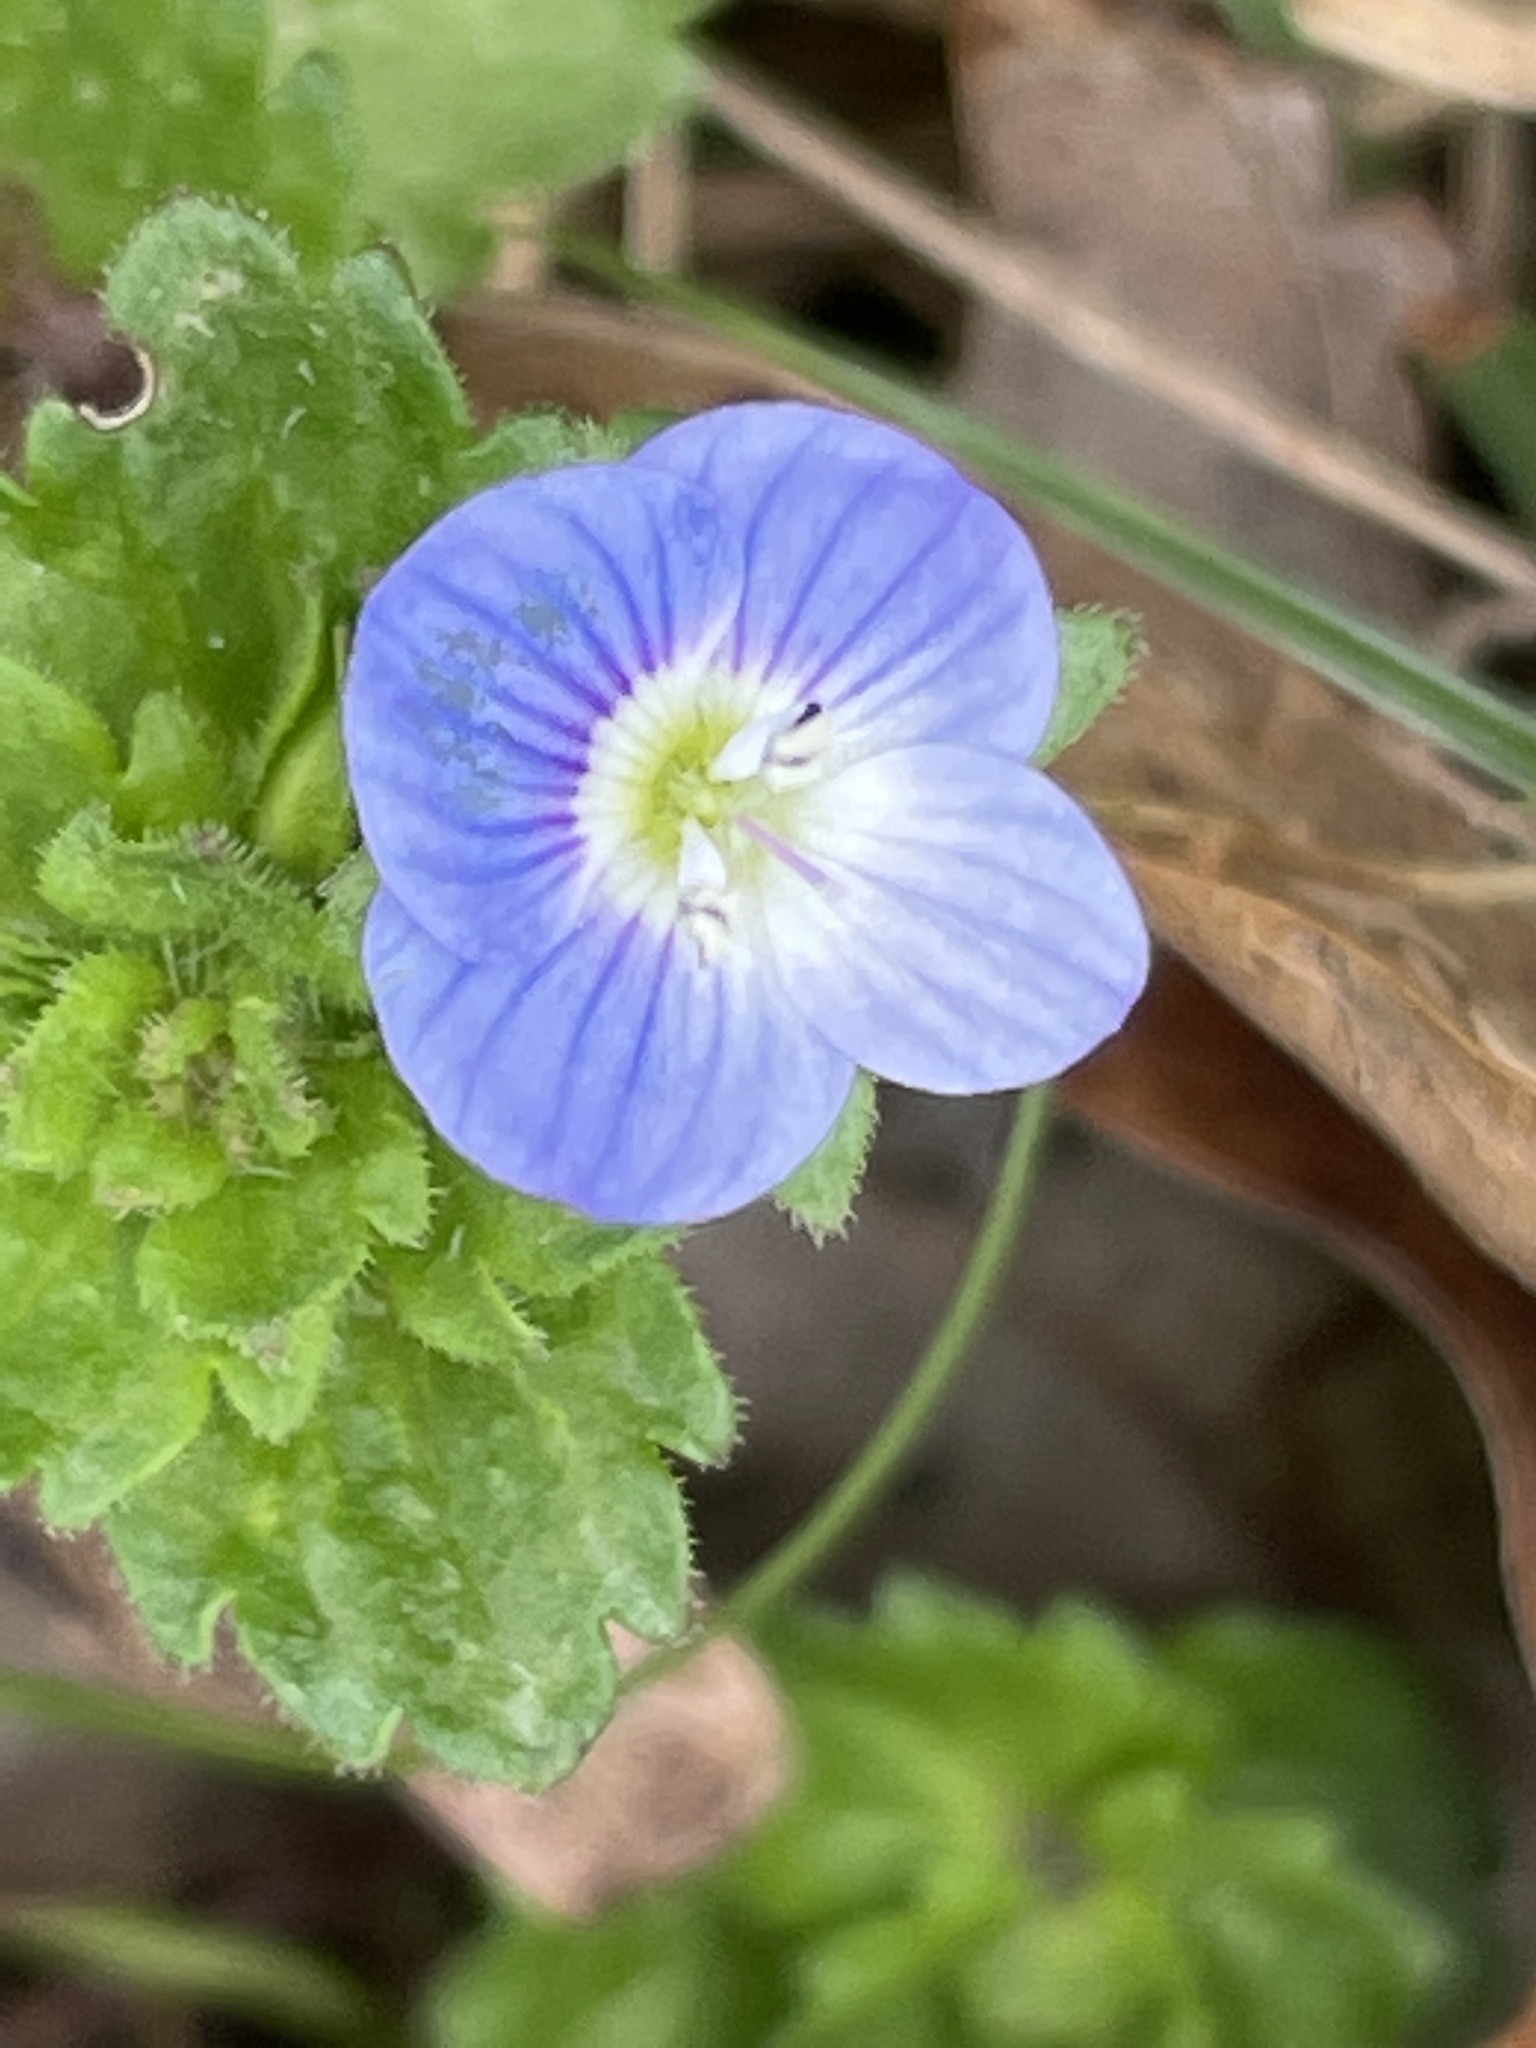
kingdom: Plantae
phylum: Tracheophyta
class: Magnoliopsida
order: Lamiales
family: Plantaginaceae
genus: Veronica
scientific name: Veronica persica
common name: Common field-speedwell
